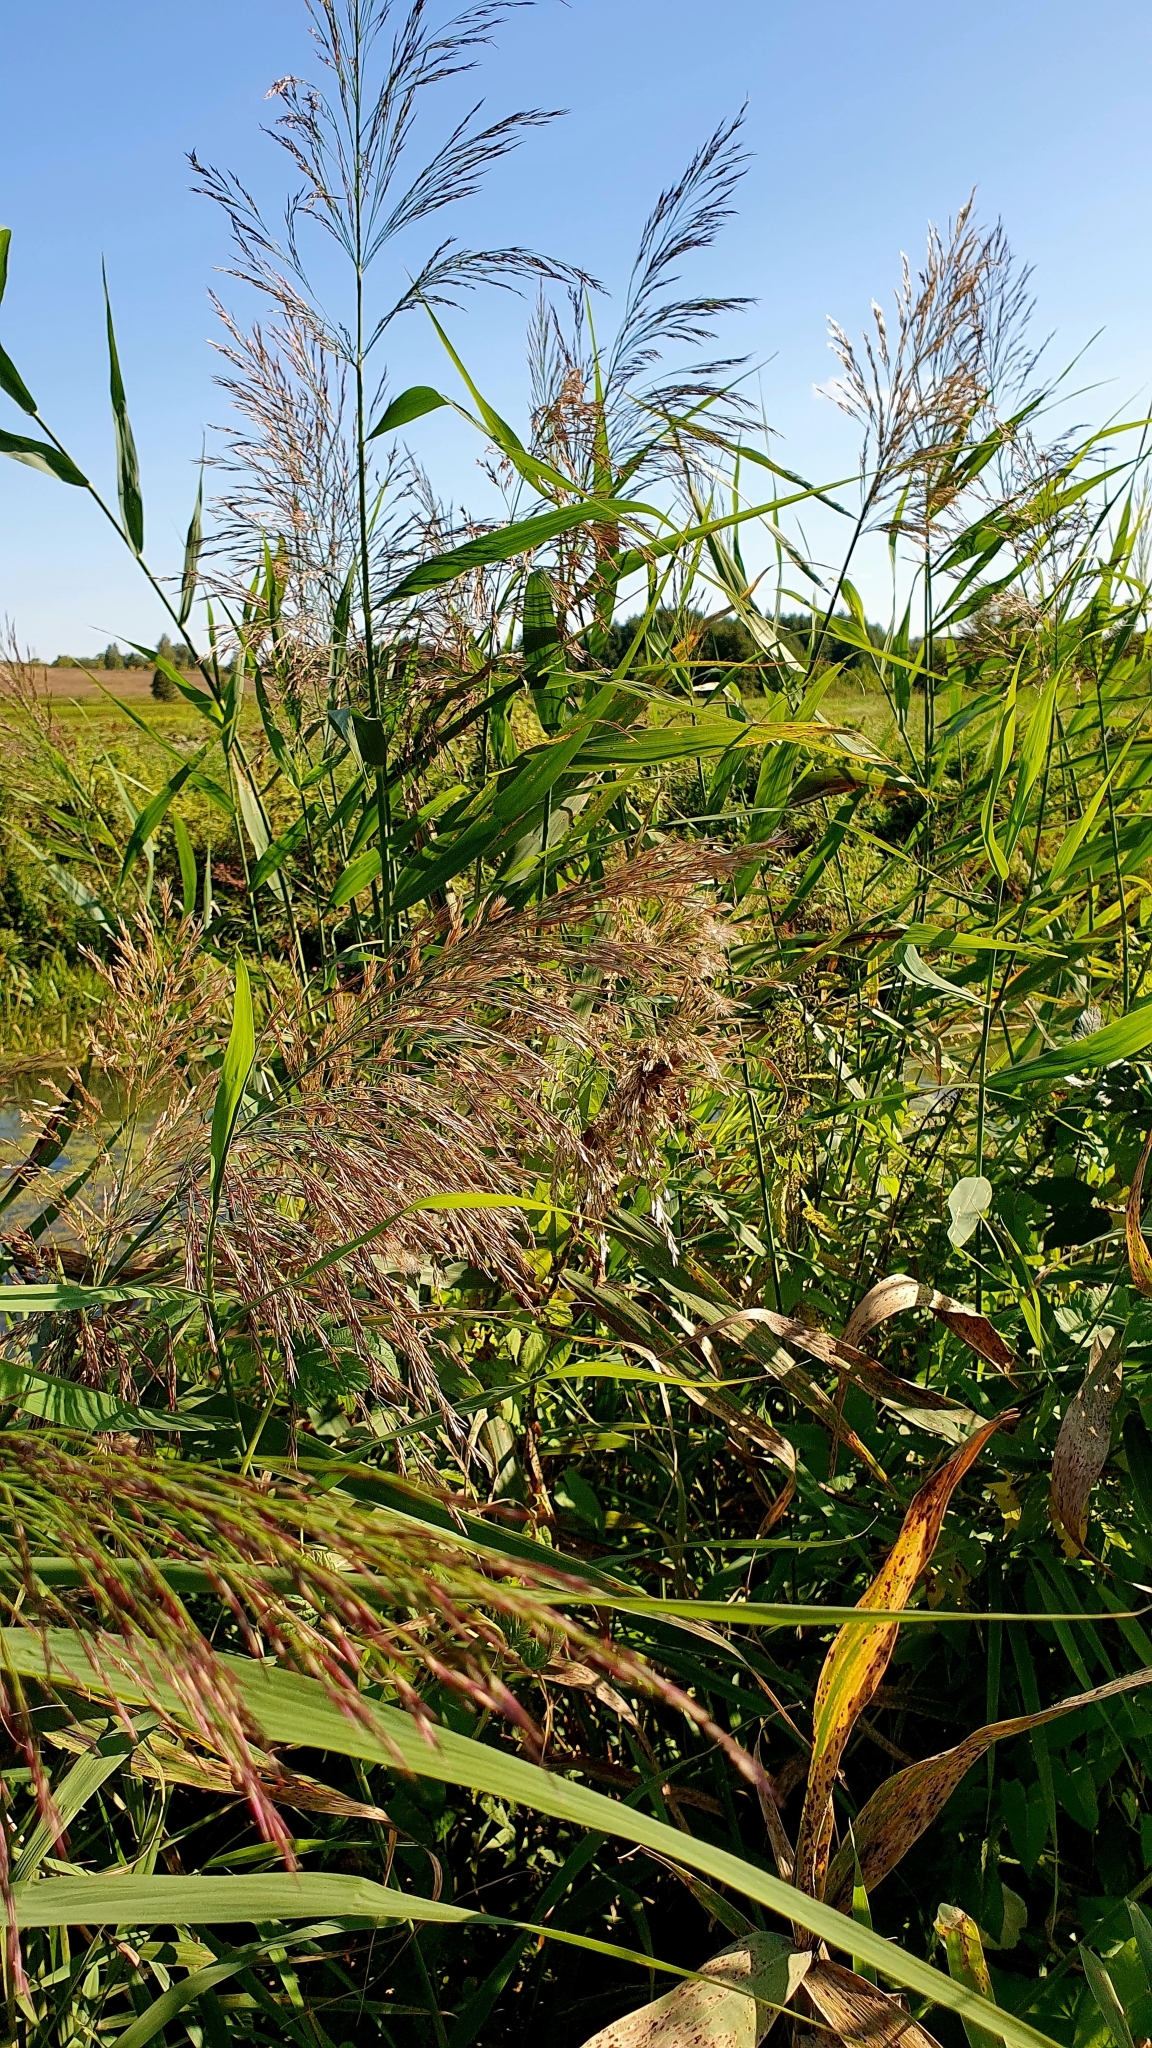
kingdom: Plantae
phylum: Tracheophyta
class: Liliopsida
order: Poales
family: Poaceae
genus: Phragmites
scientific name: Phragmites australis
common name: Common reed
